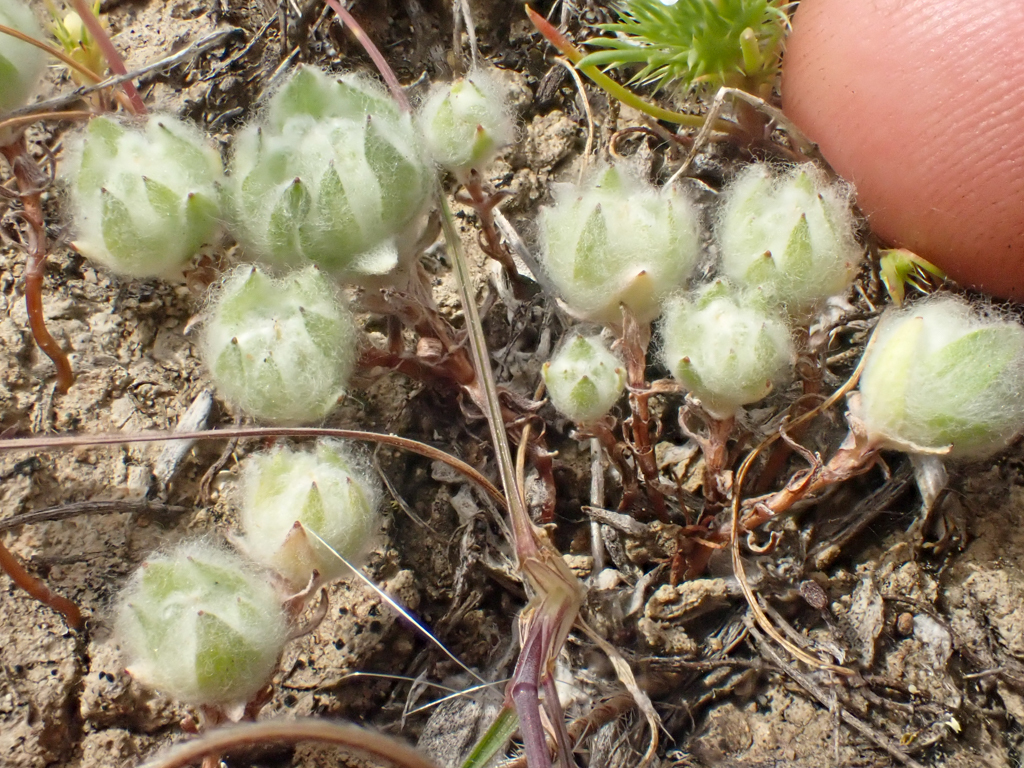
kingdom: Plantae
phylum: Tracheophyta
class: Magnoliopsida
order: Asterales
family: Asteraceae
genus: Psilocarphus
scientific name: Psilocarphus brevissimus
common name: Dwarf woollyheads
